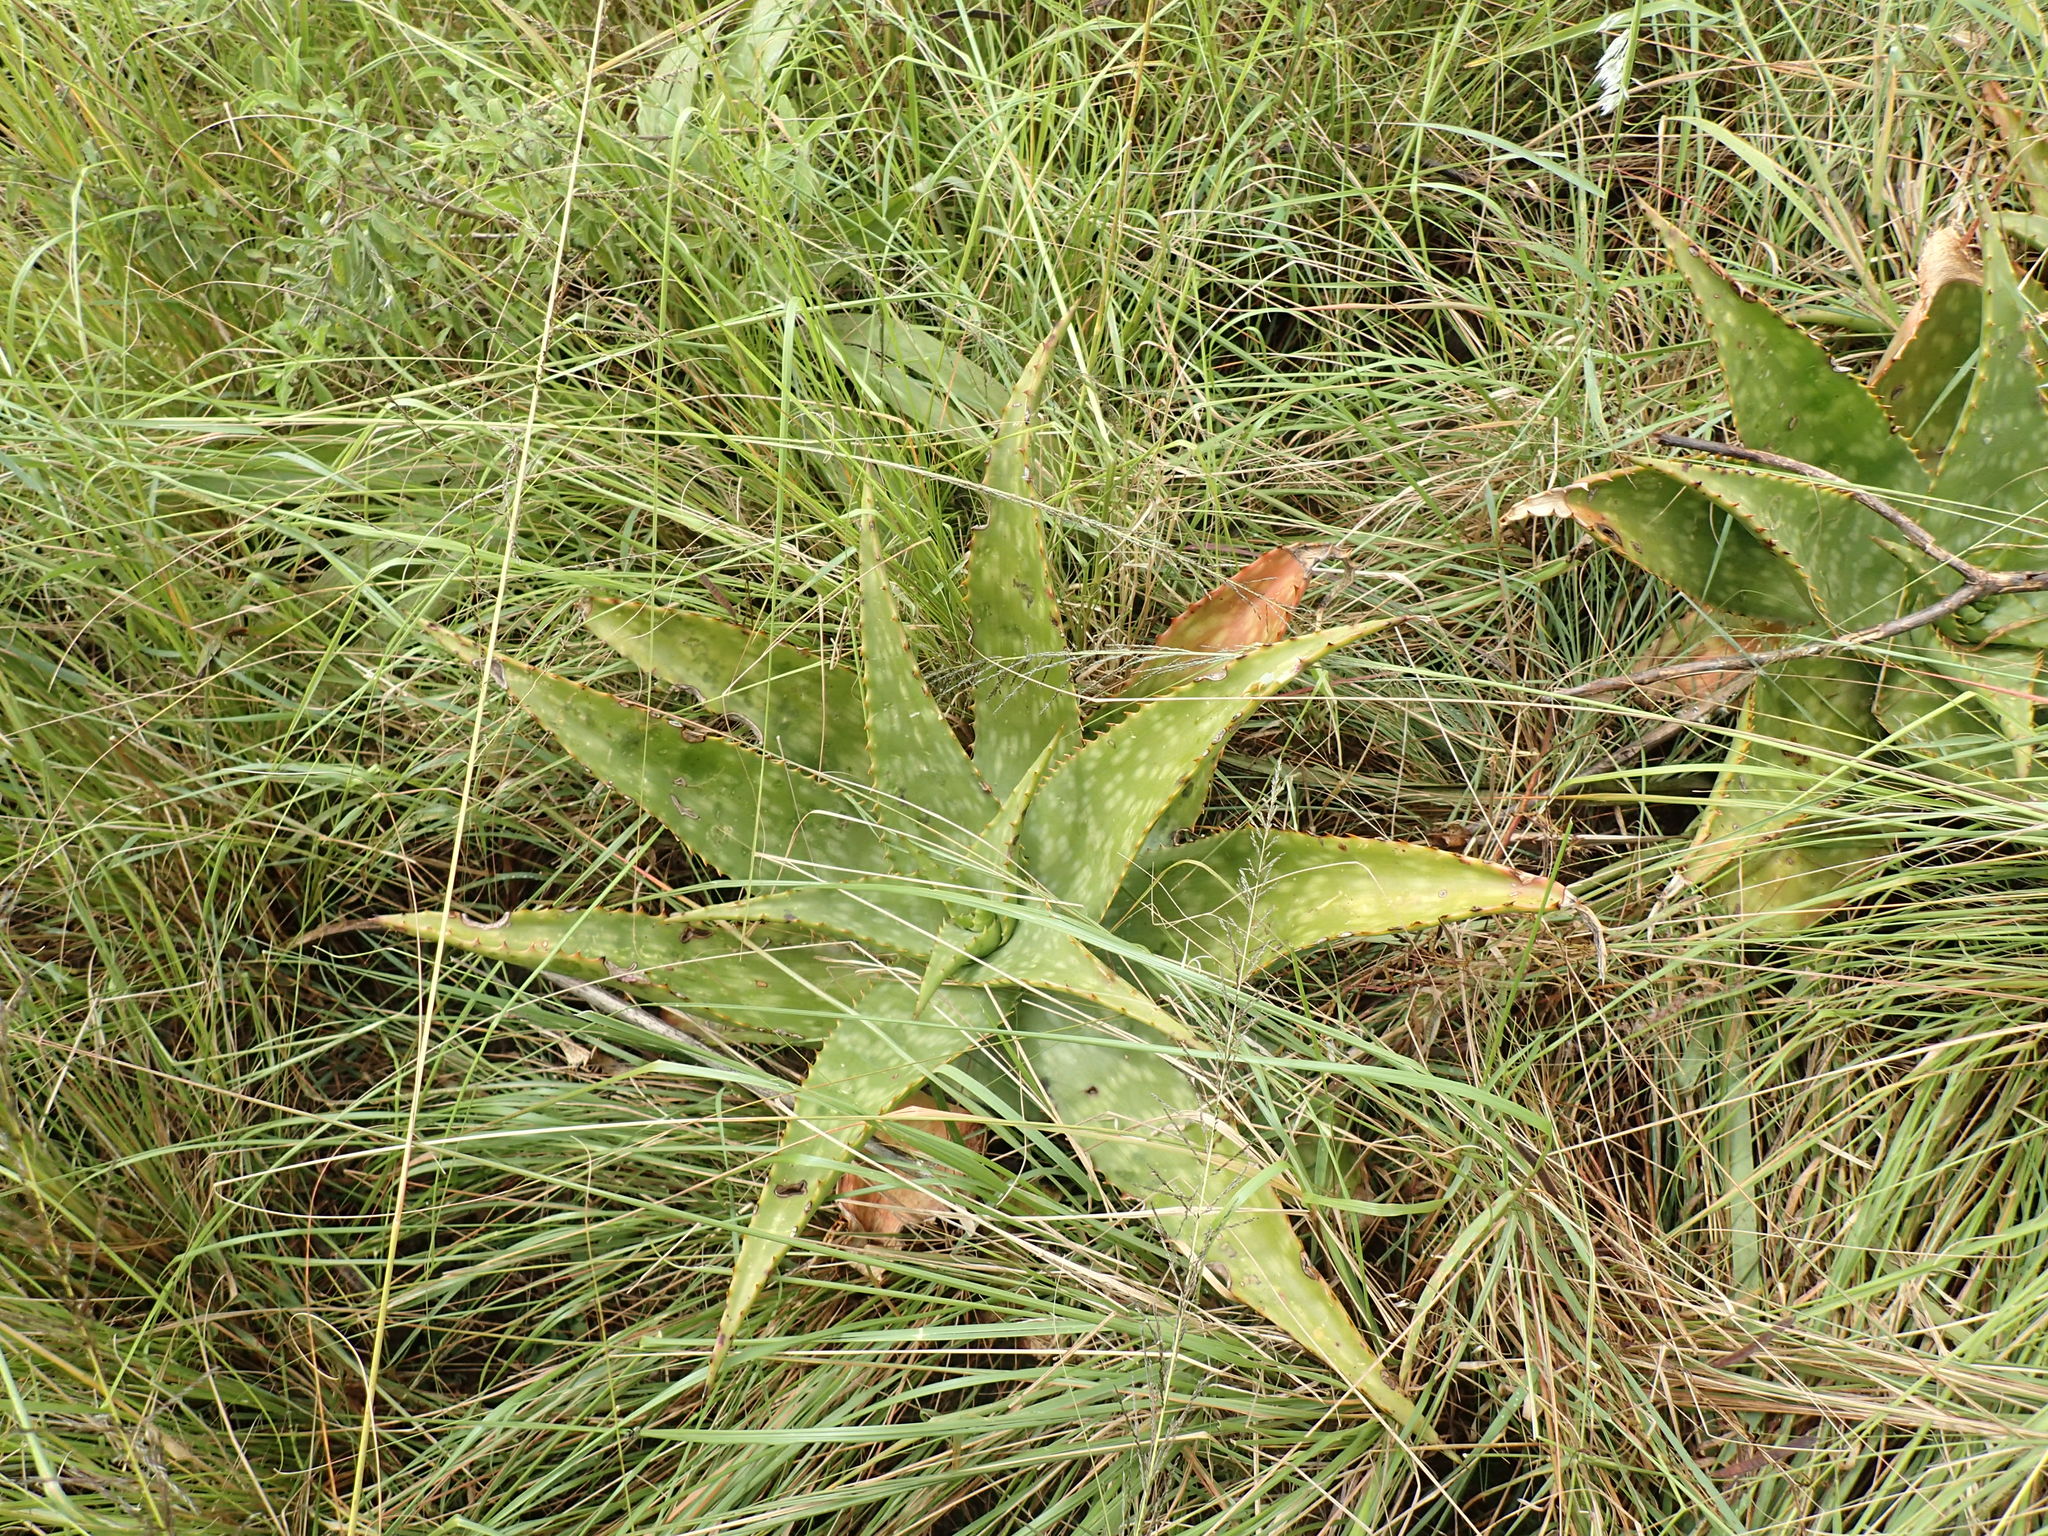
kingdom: Plantae
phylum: Tracheophyta
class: Liliopsida
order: Asparagales
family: Asphodelaceae
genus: Aloe
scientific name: Aloe maculata
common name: Broadleaf aloe
